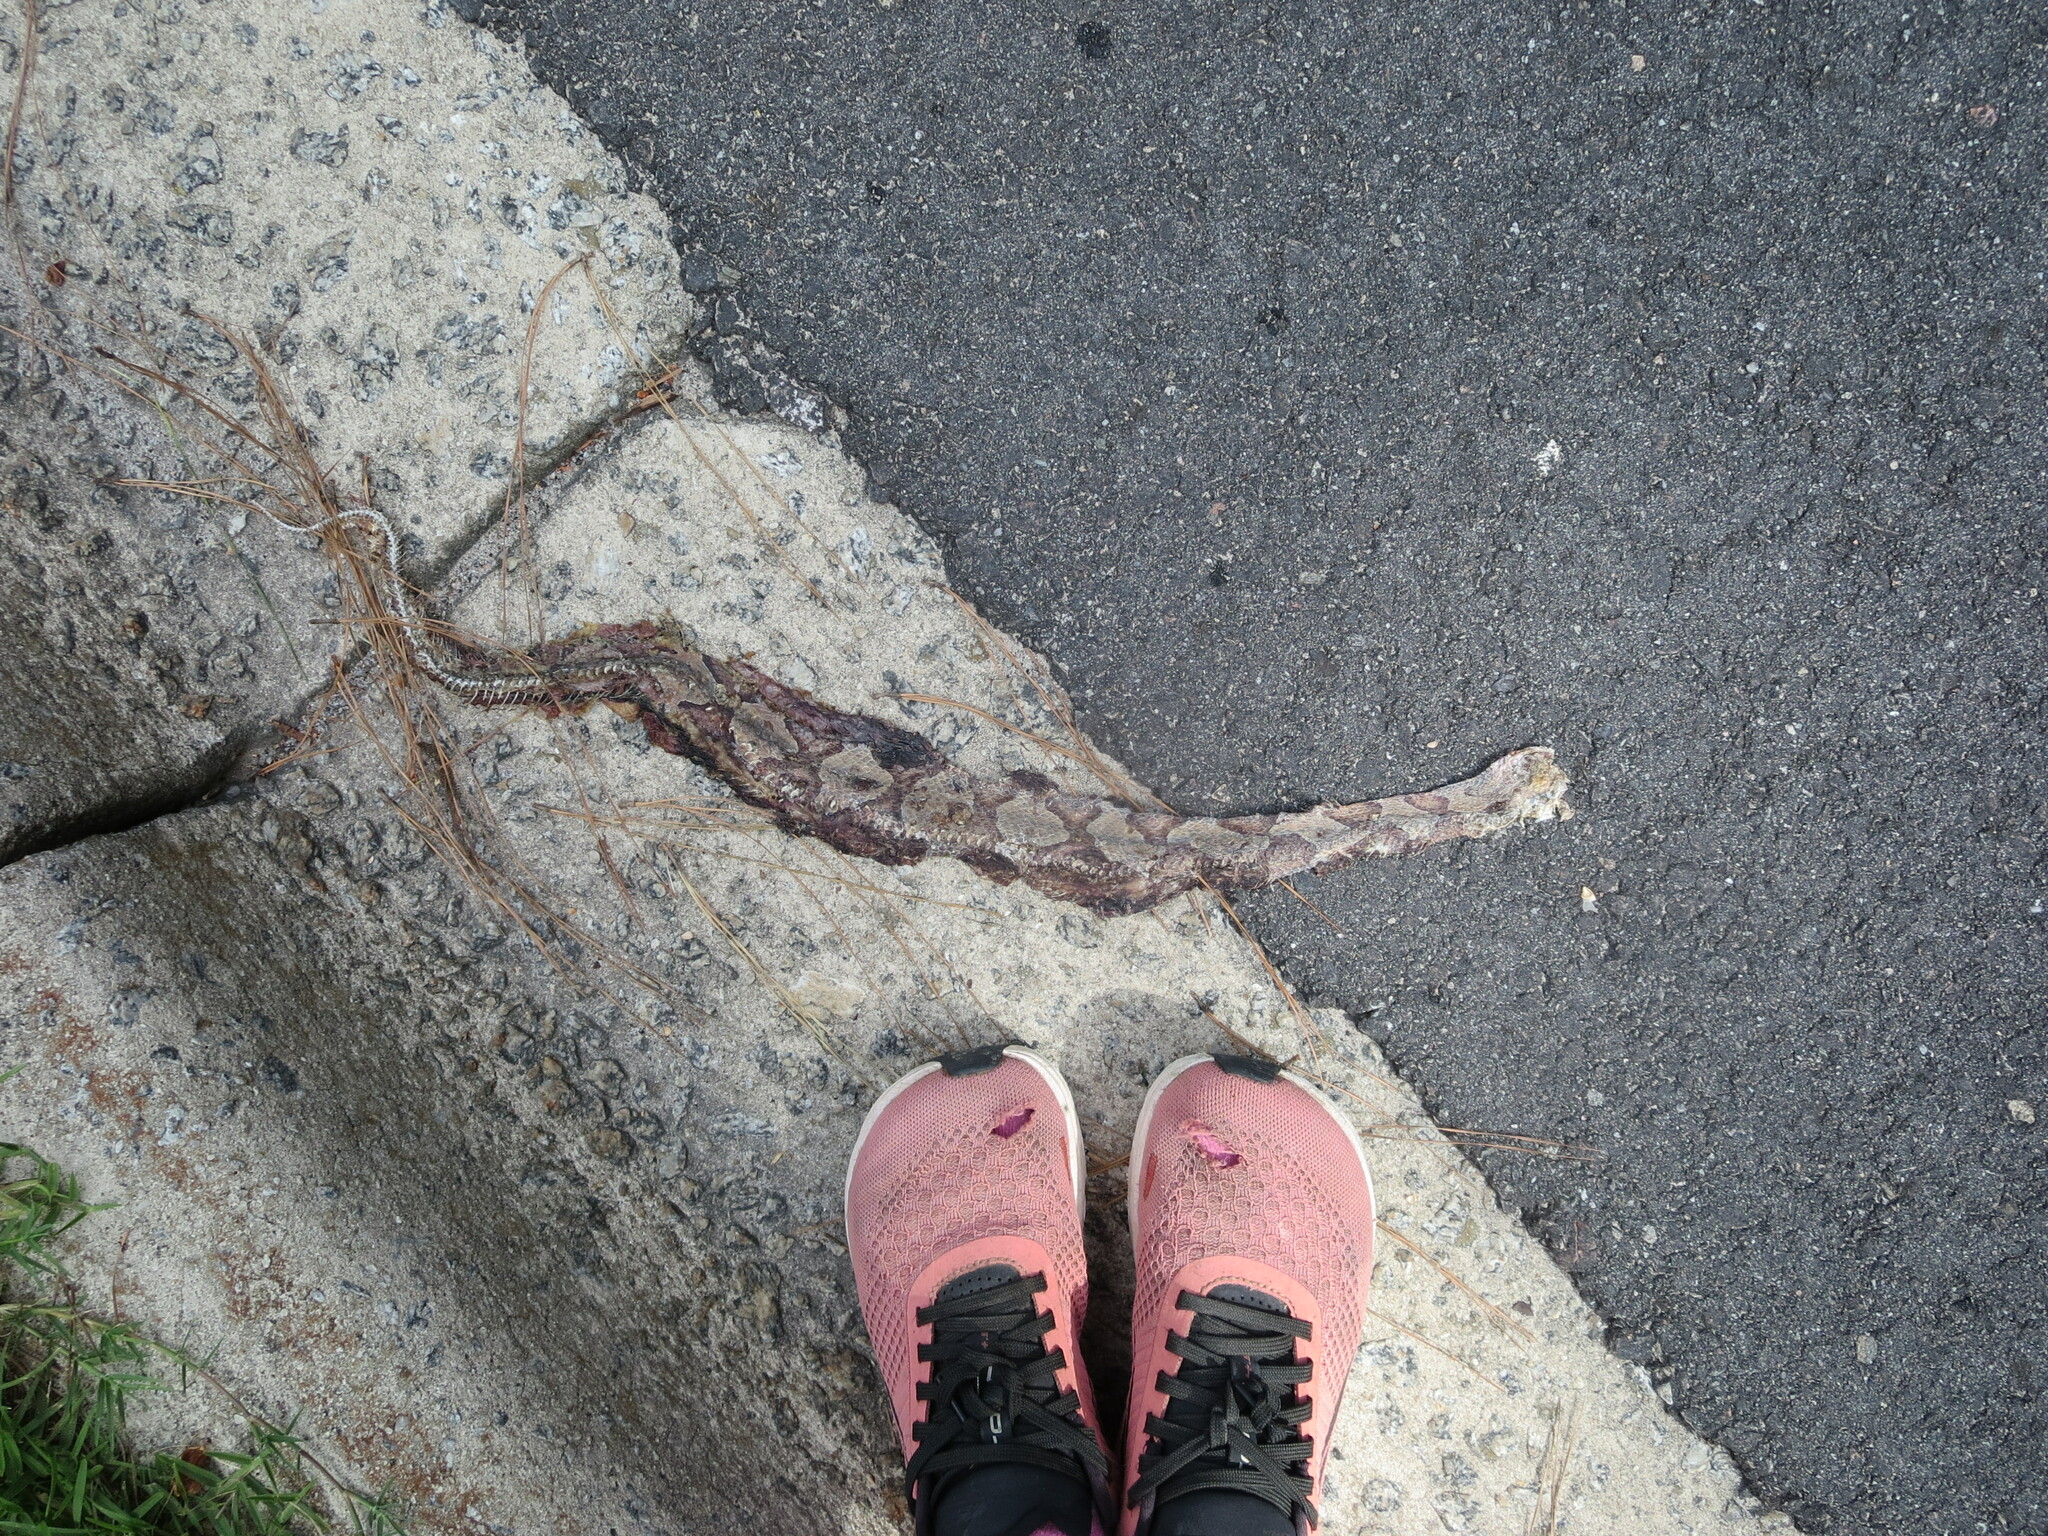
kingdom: Animalia
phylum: Chordata
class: Squamata
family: Viperidae
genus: Agkistrodon
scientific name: Agkistrodon contortrix
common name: Northern copperhead
